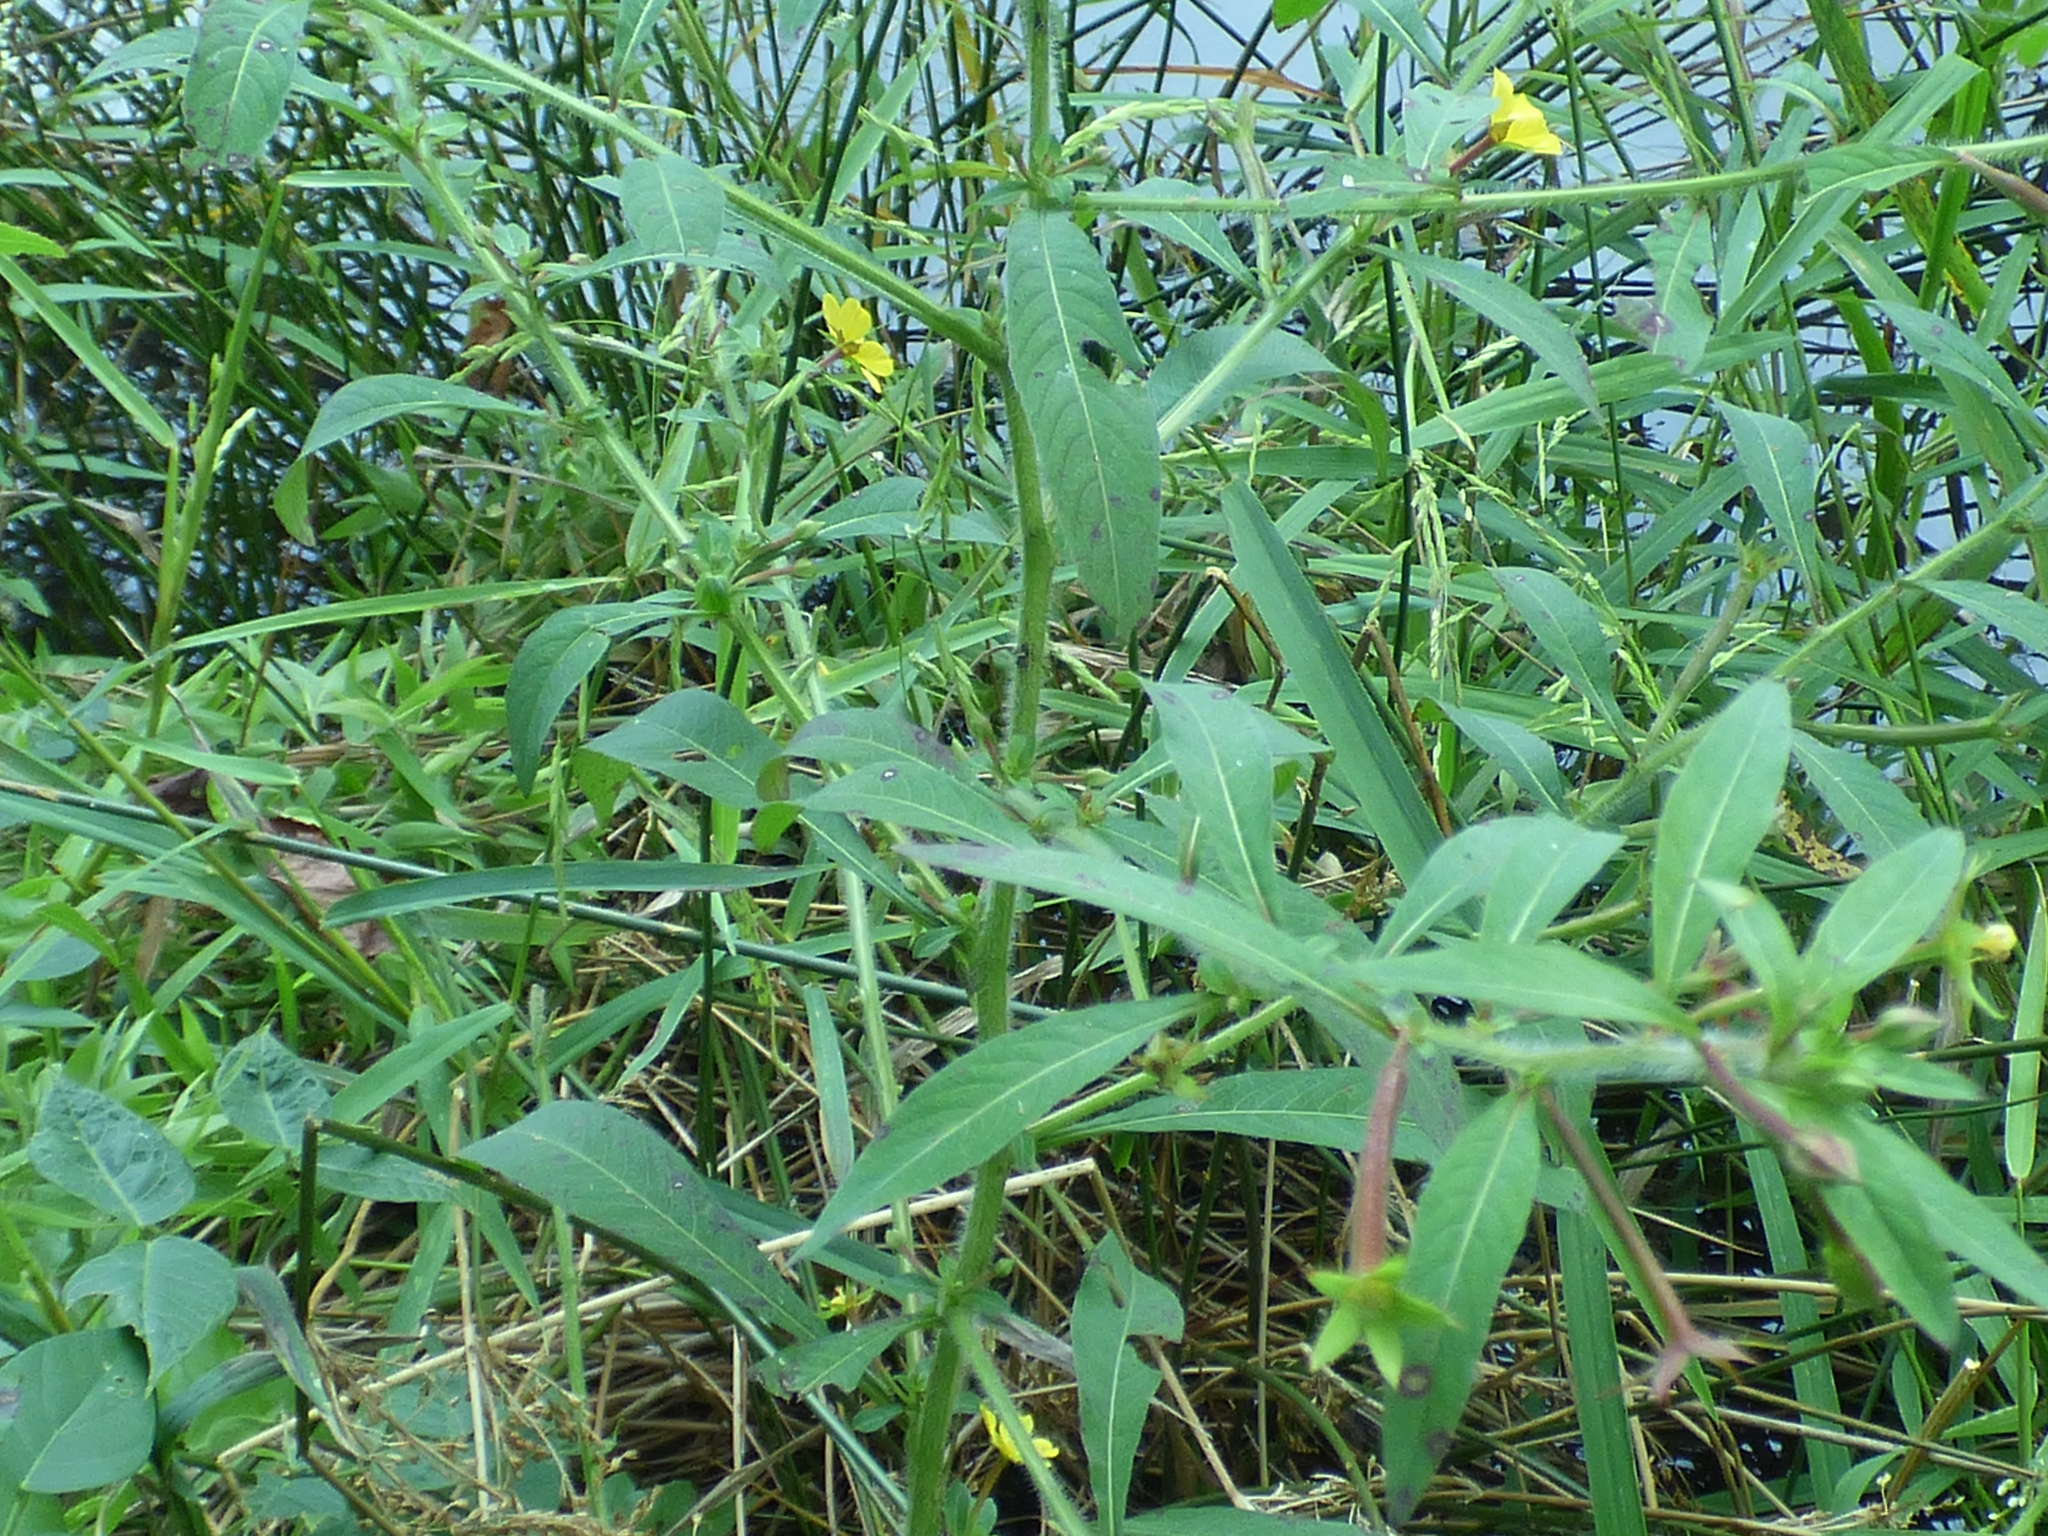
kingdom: Plantae
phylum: Tracheophyta
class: Magnoliopsida
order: Myrtales
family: Onagraceae
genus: Ludwigia
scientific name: Ludwigia leptocarpa
